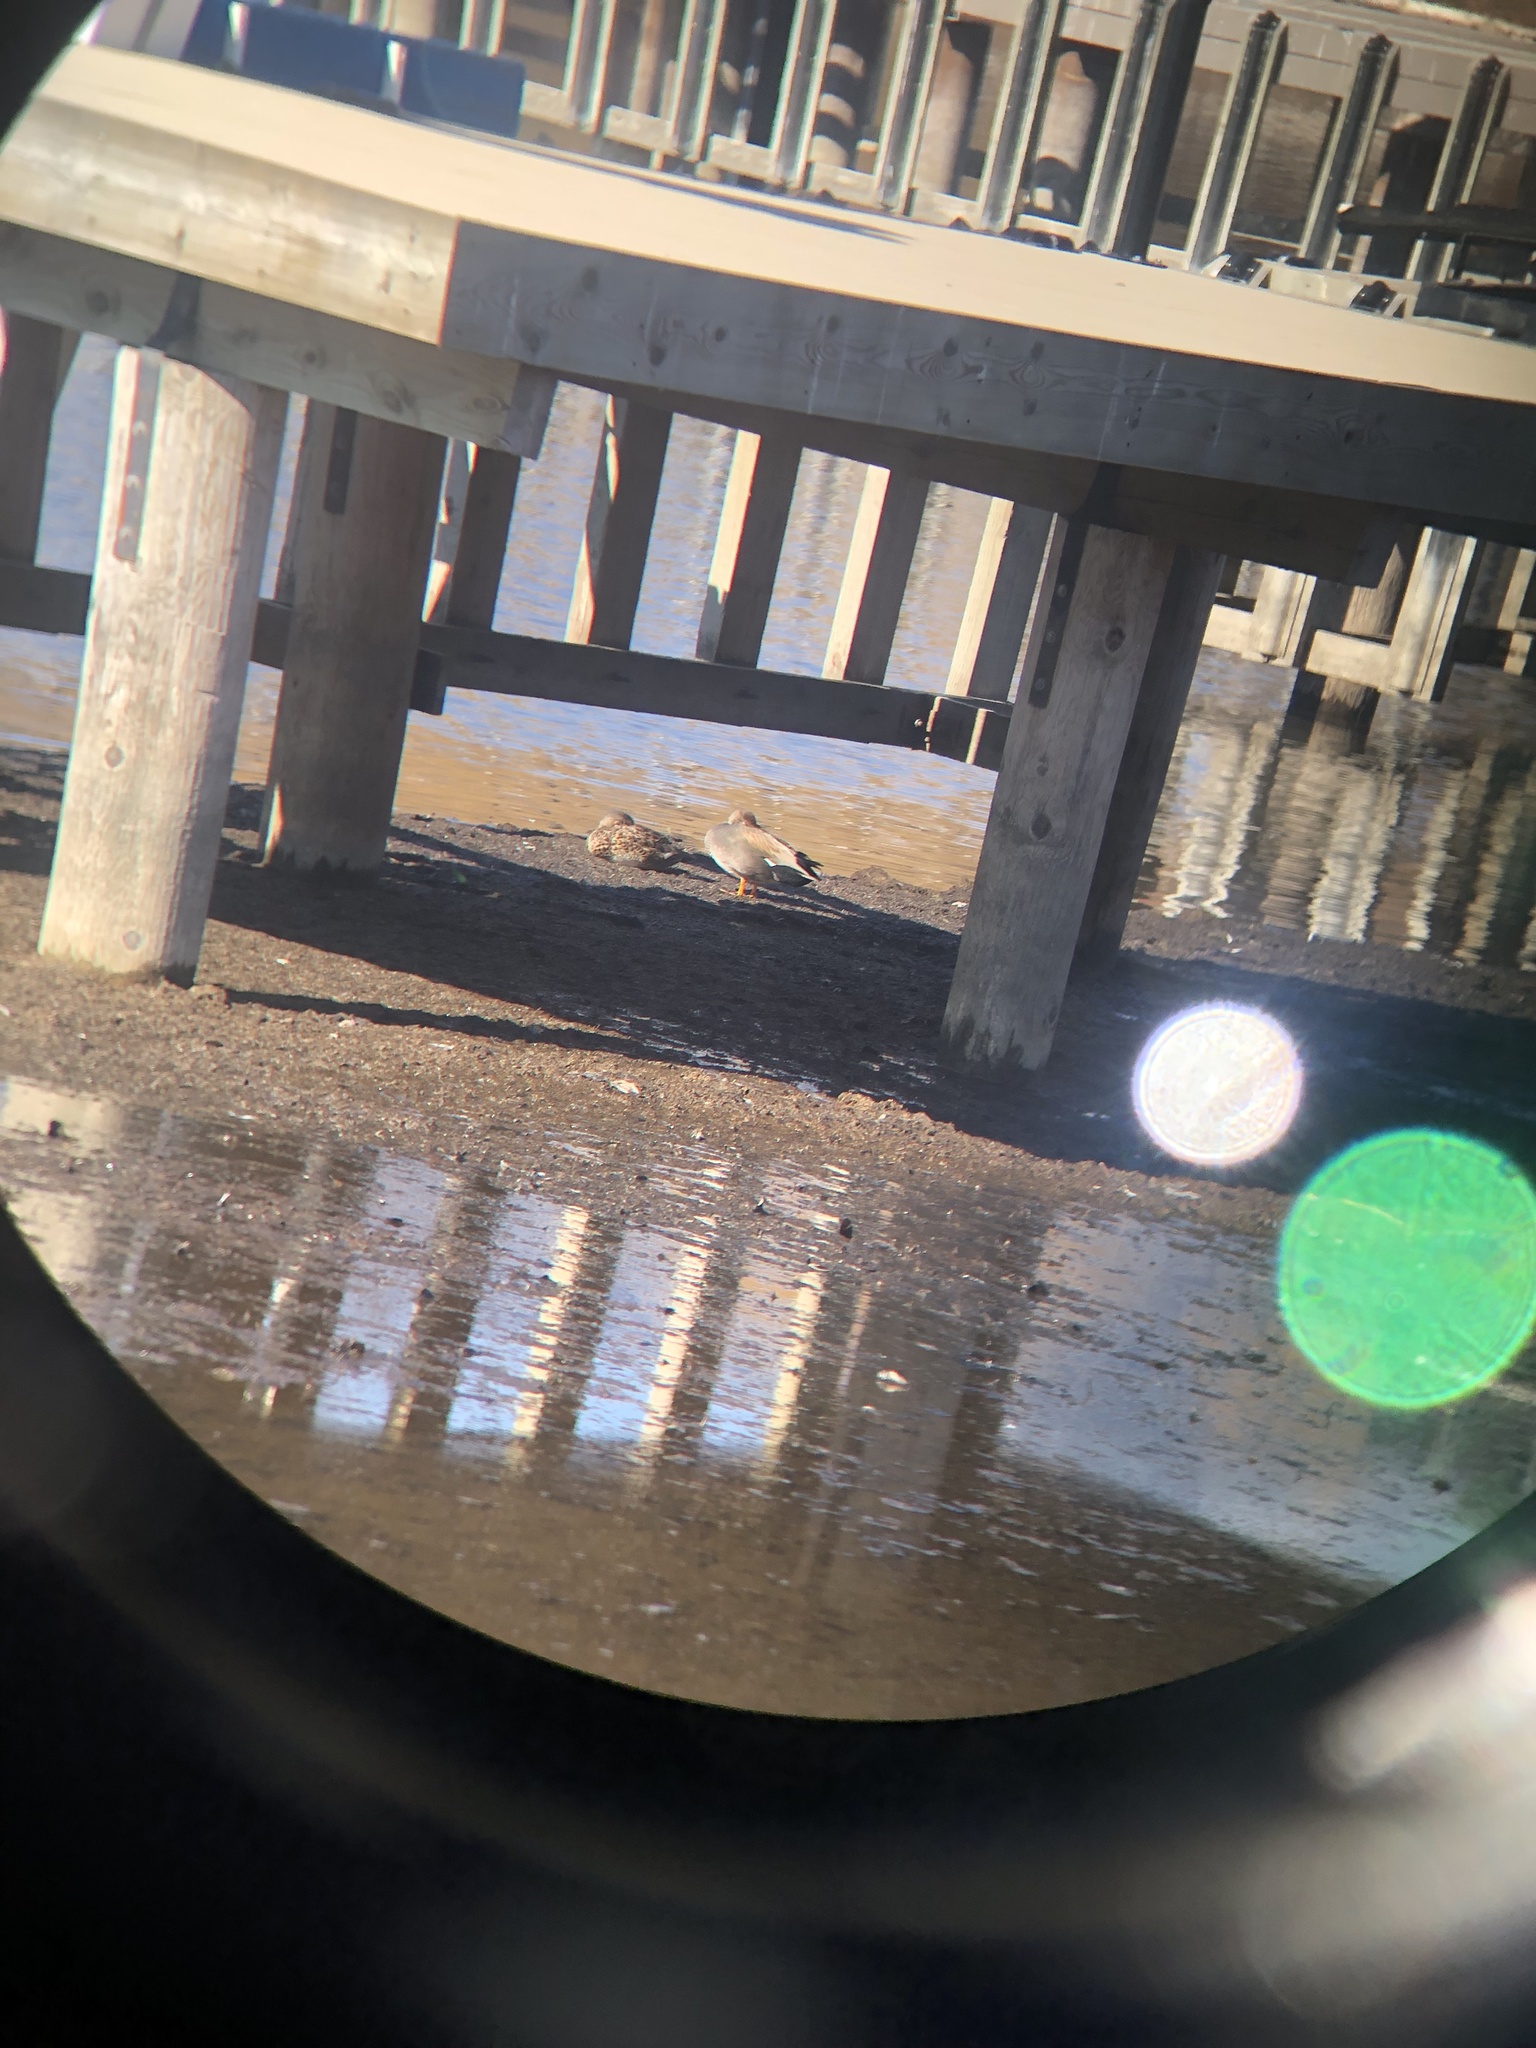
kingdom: Animalia
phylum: Chordata
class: Aves
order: Anseriformes
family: Anatidae
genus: Mareca
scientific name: Mareca strepera
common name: Gadwall
